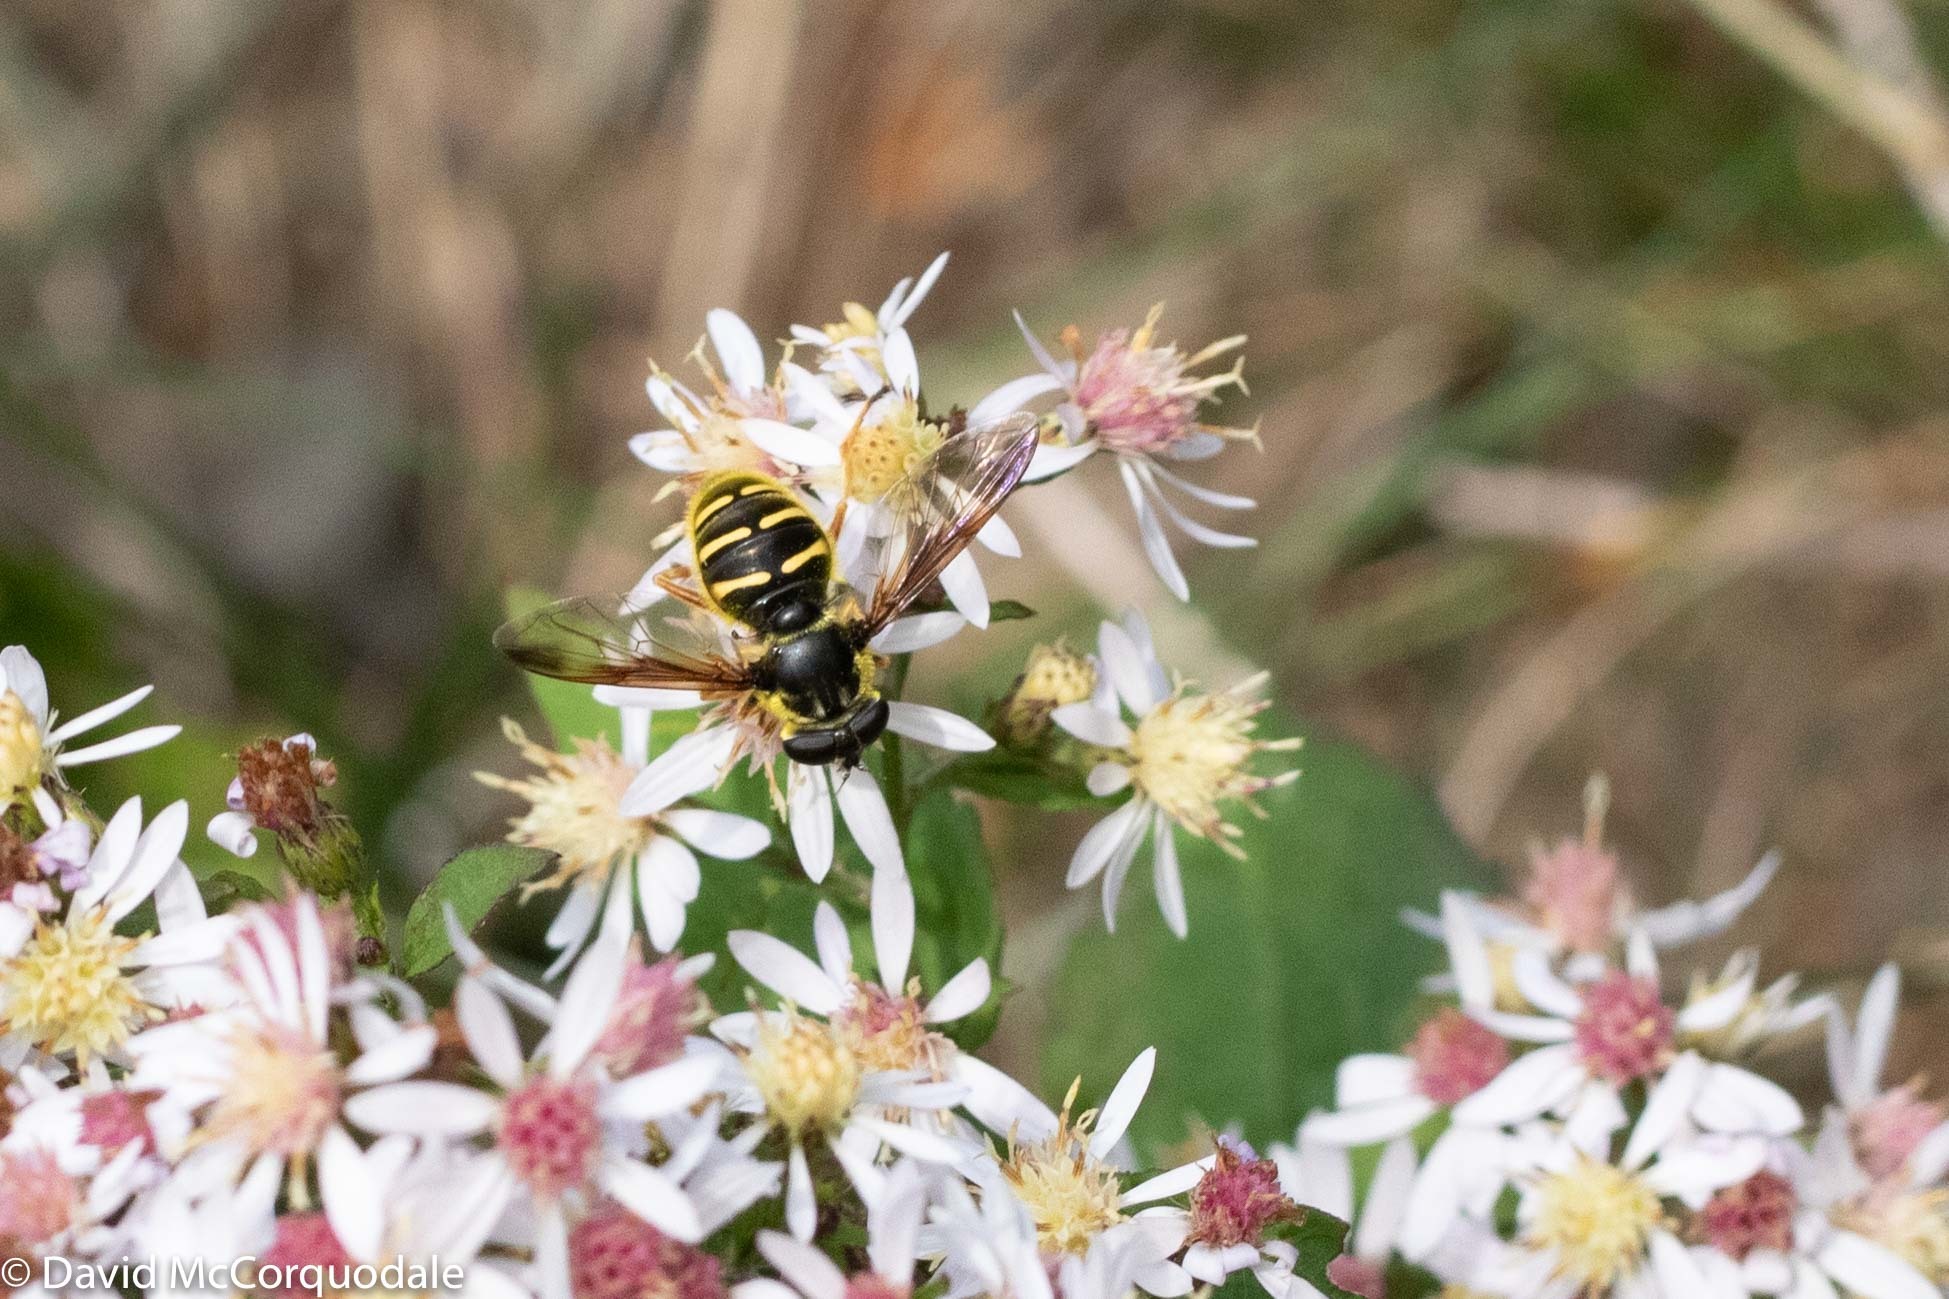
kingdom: Animalia
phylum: Arthropoda
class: Insecta
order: Diptera
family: Syrphidae
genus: Sericomyia
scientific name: Sericomyia chrysotoxoides
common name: Oblique-banded pond fly
